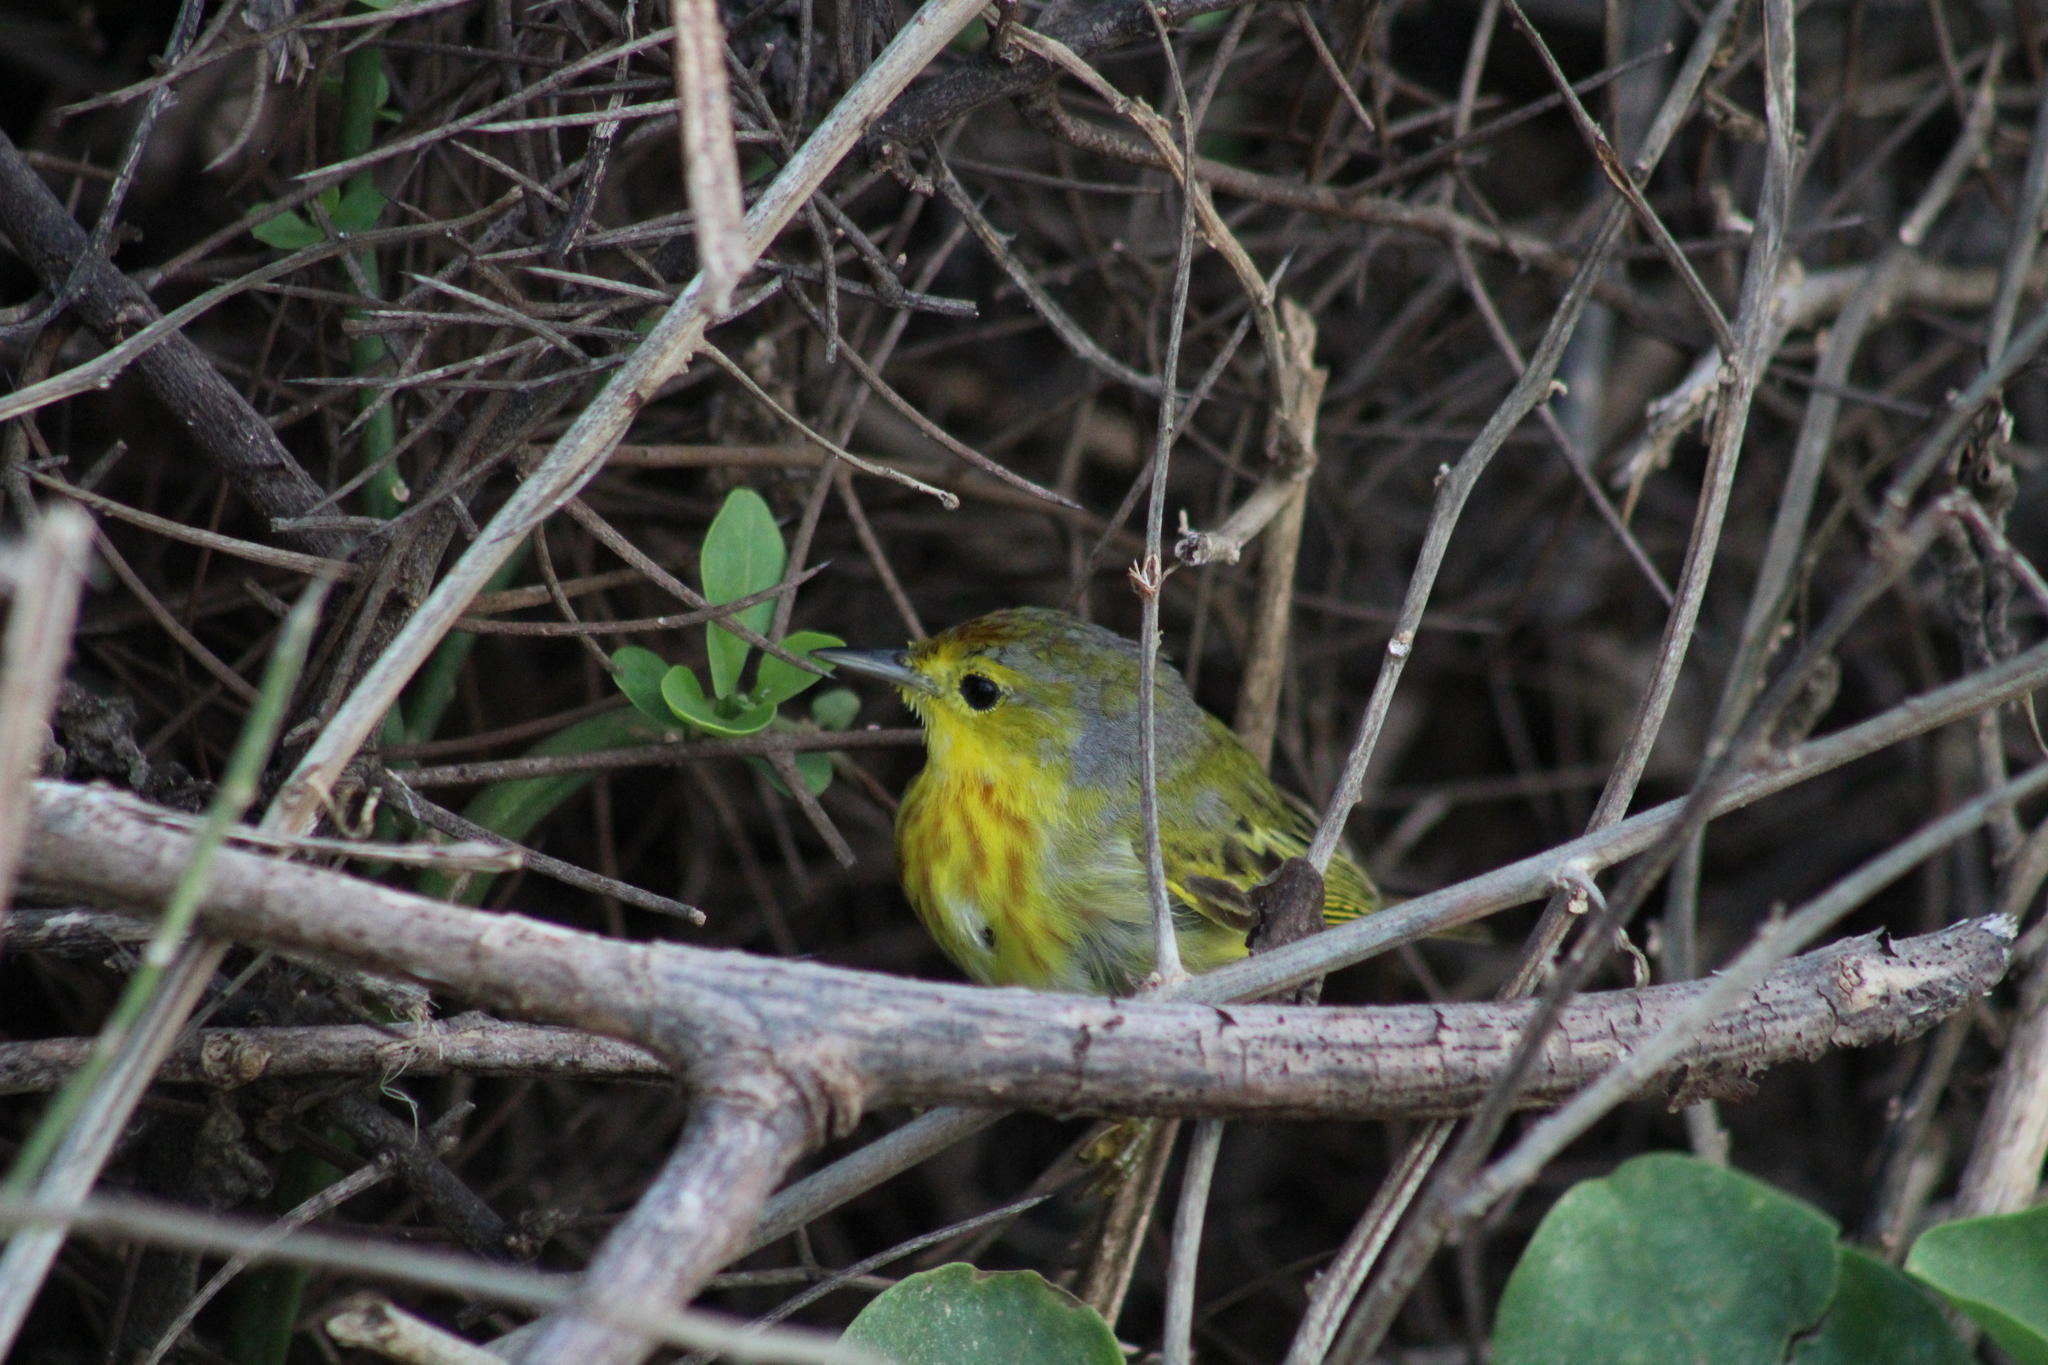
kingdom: Animalia
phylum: Chordata
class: Aves
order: Passeriformes
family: Parulidae
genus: Setophaga
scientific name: Setophaga petechia
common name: Yellow warbler
